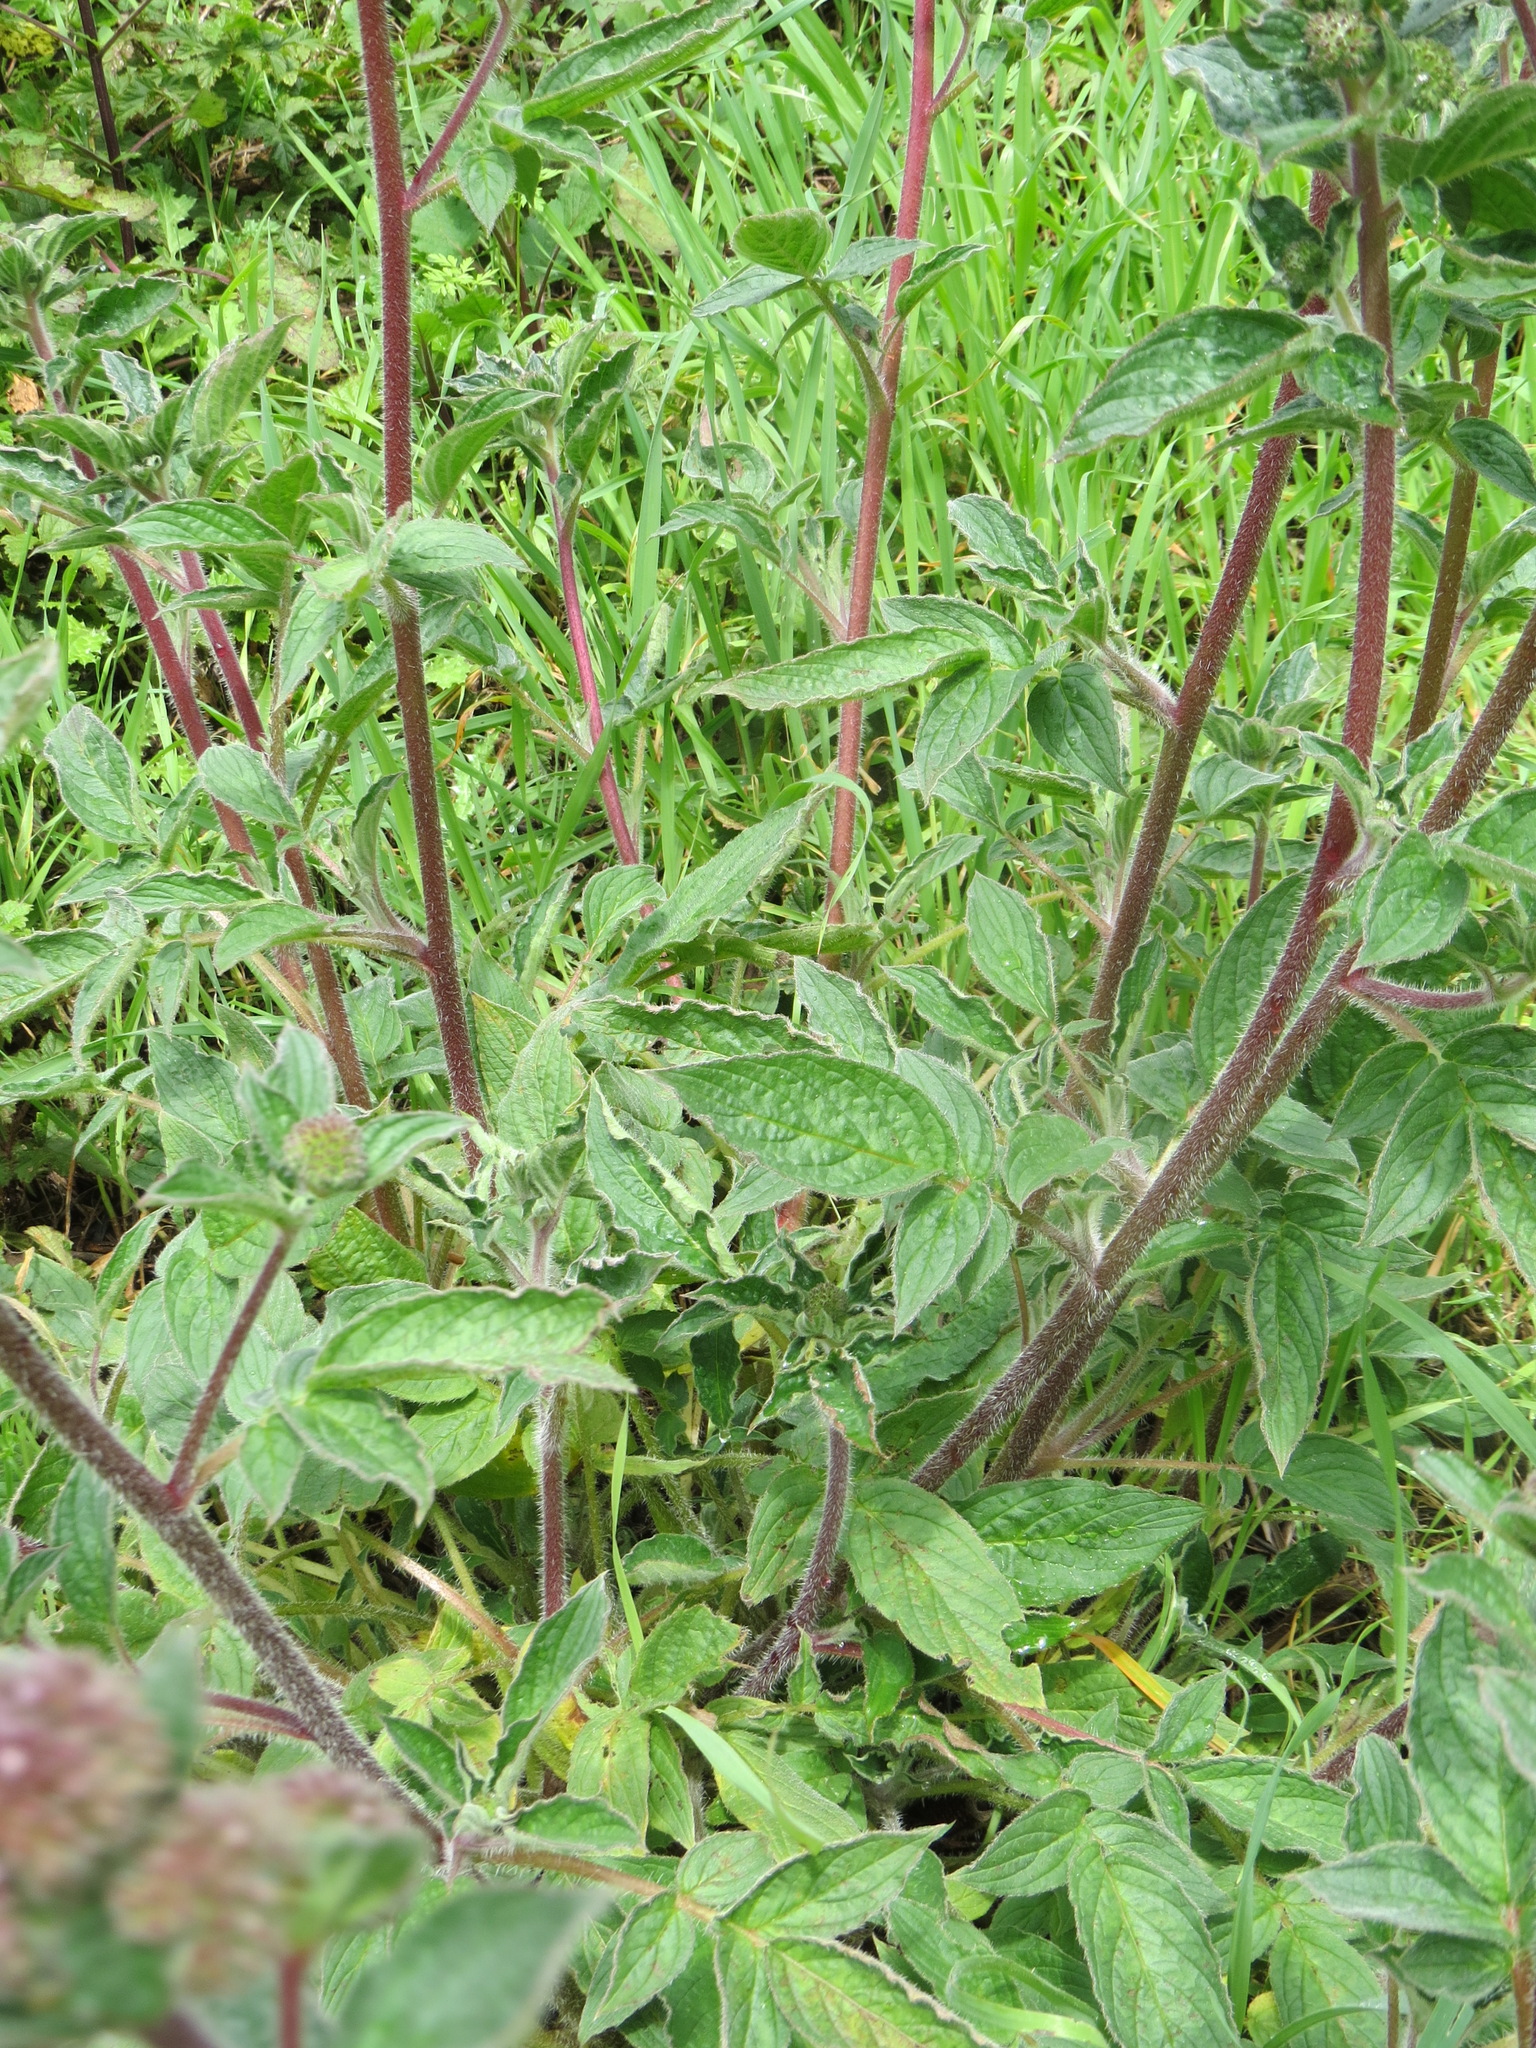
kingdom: Plantae
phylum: Tracheophyta
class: Magnoliopsida
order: Boraginales
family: Hydrophyllaceae
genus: Phacelia
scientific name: Phacelia californica
